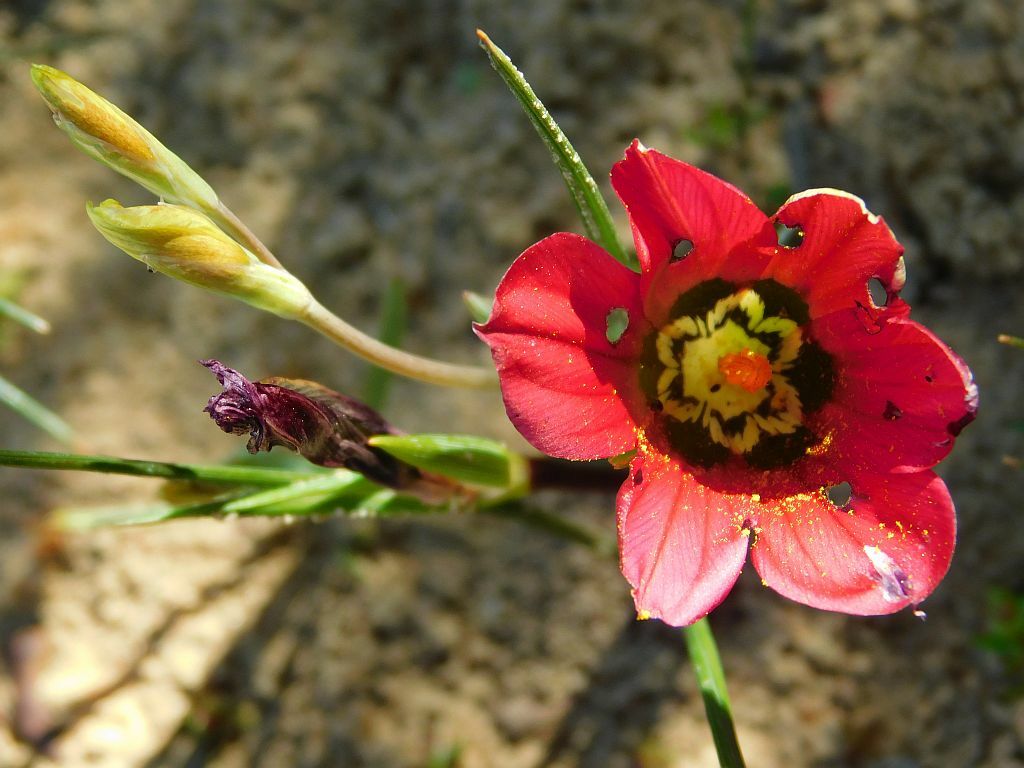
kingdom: Plantae
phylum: Tracheophyta
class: Liliopsida
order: Asparagales
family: Iridaceae
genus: Romulea
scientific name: Romulea pudica
